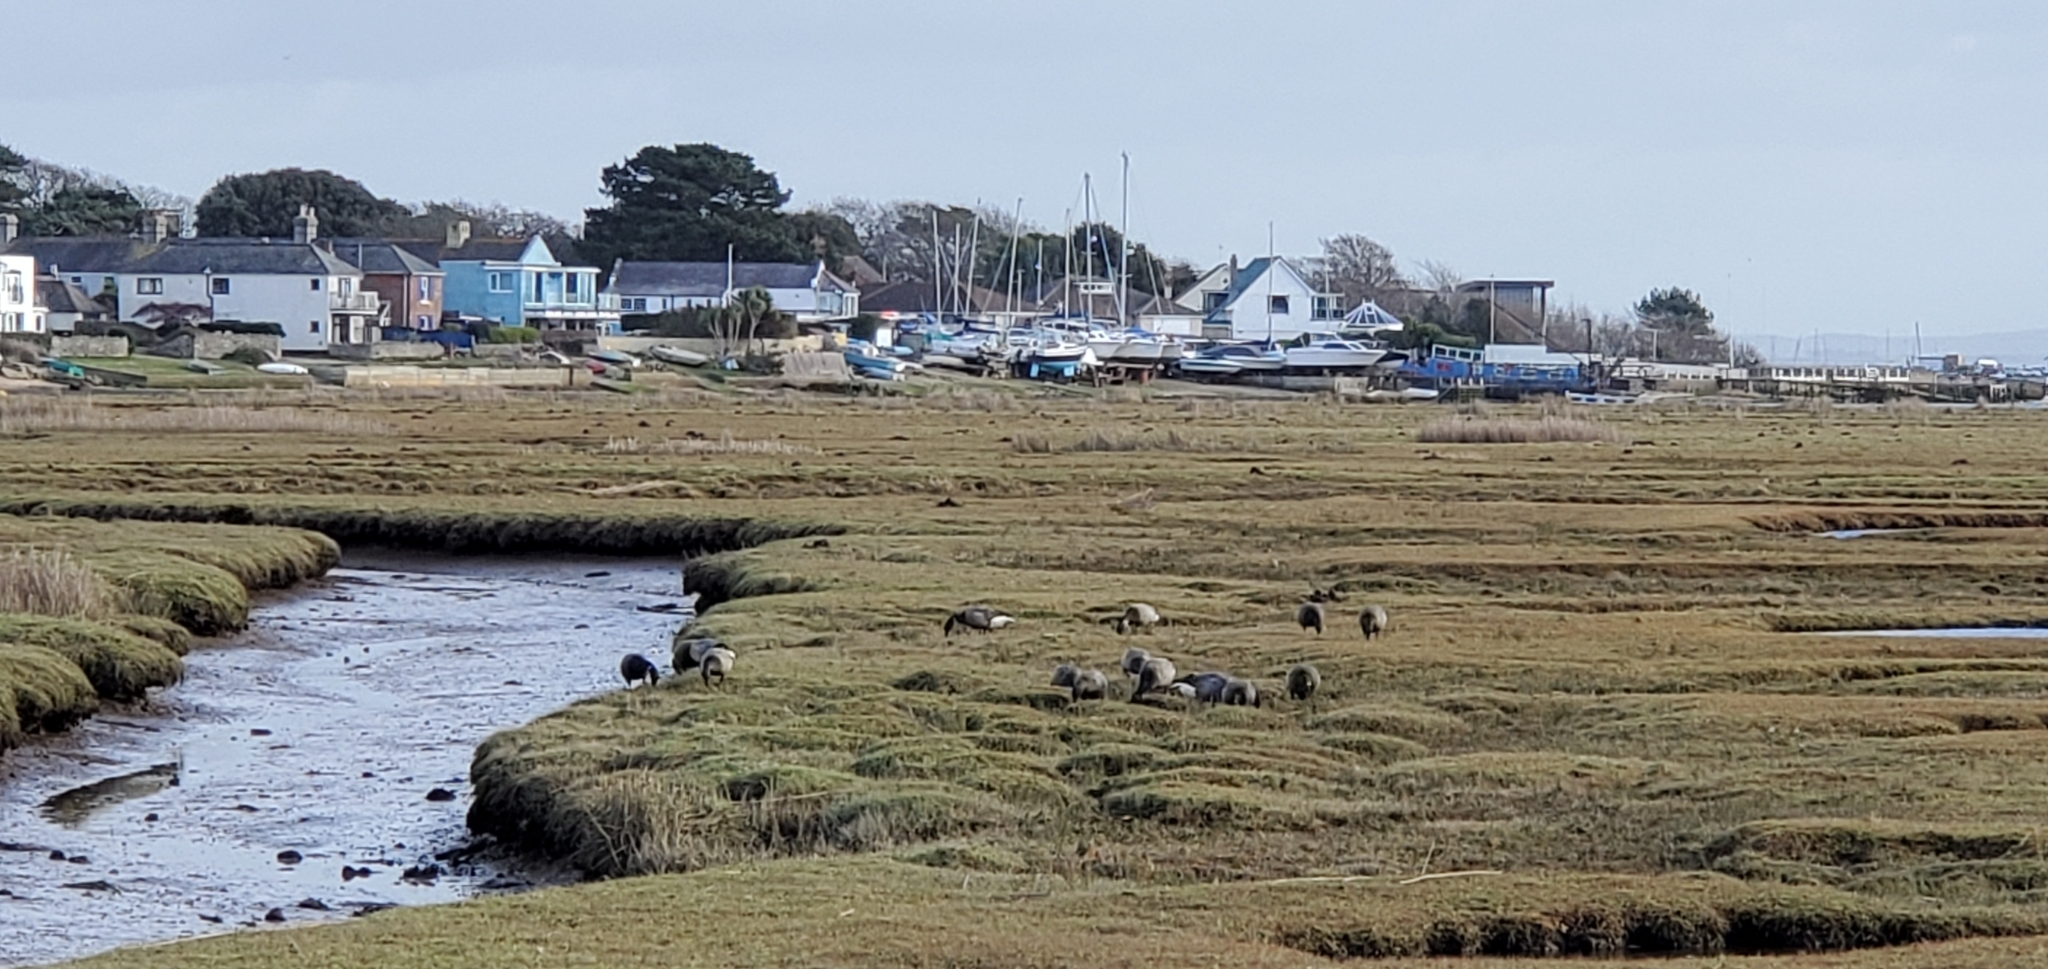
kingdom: Animalia
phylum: Chordata
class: Aves
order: Anseriformes
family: Anatidae
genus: Branta
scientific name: Branta leucopsis
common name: Barnacle goose
